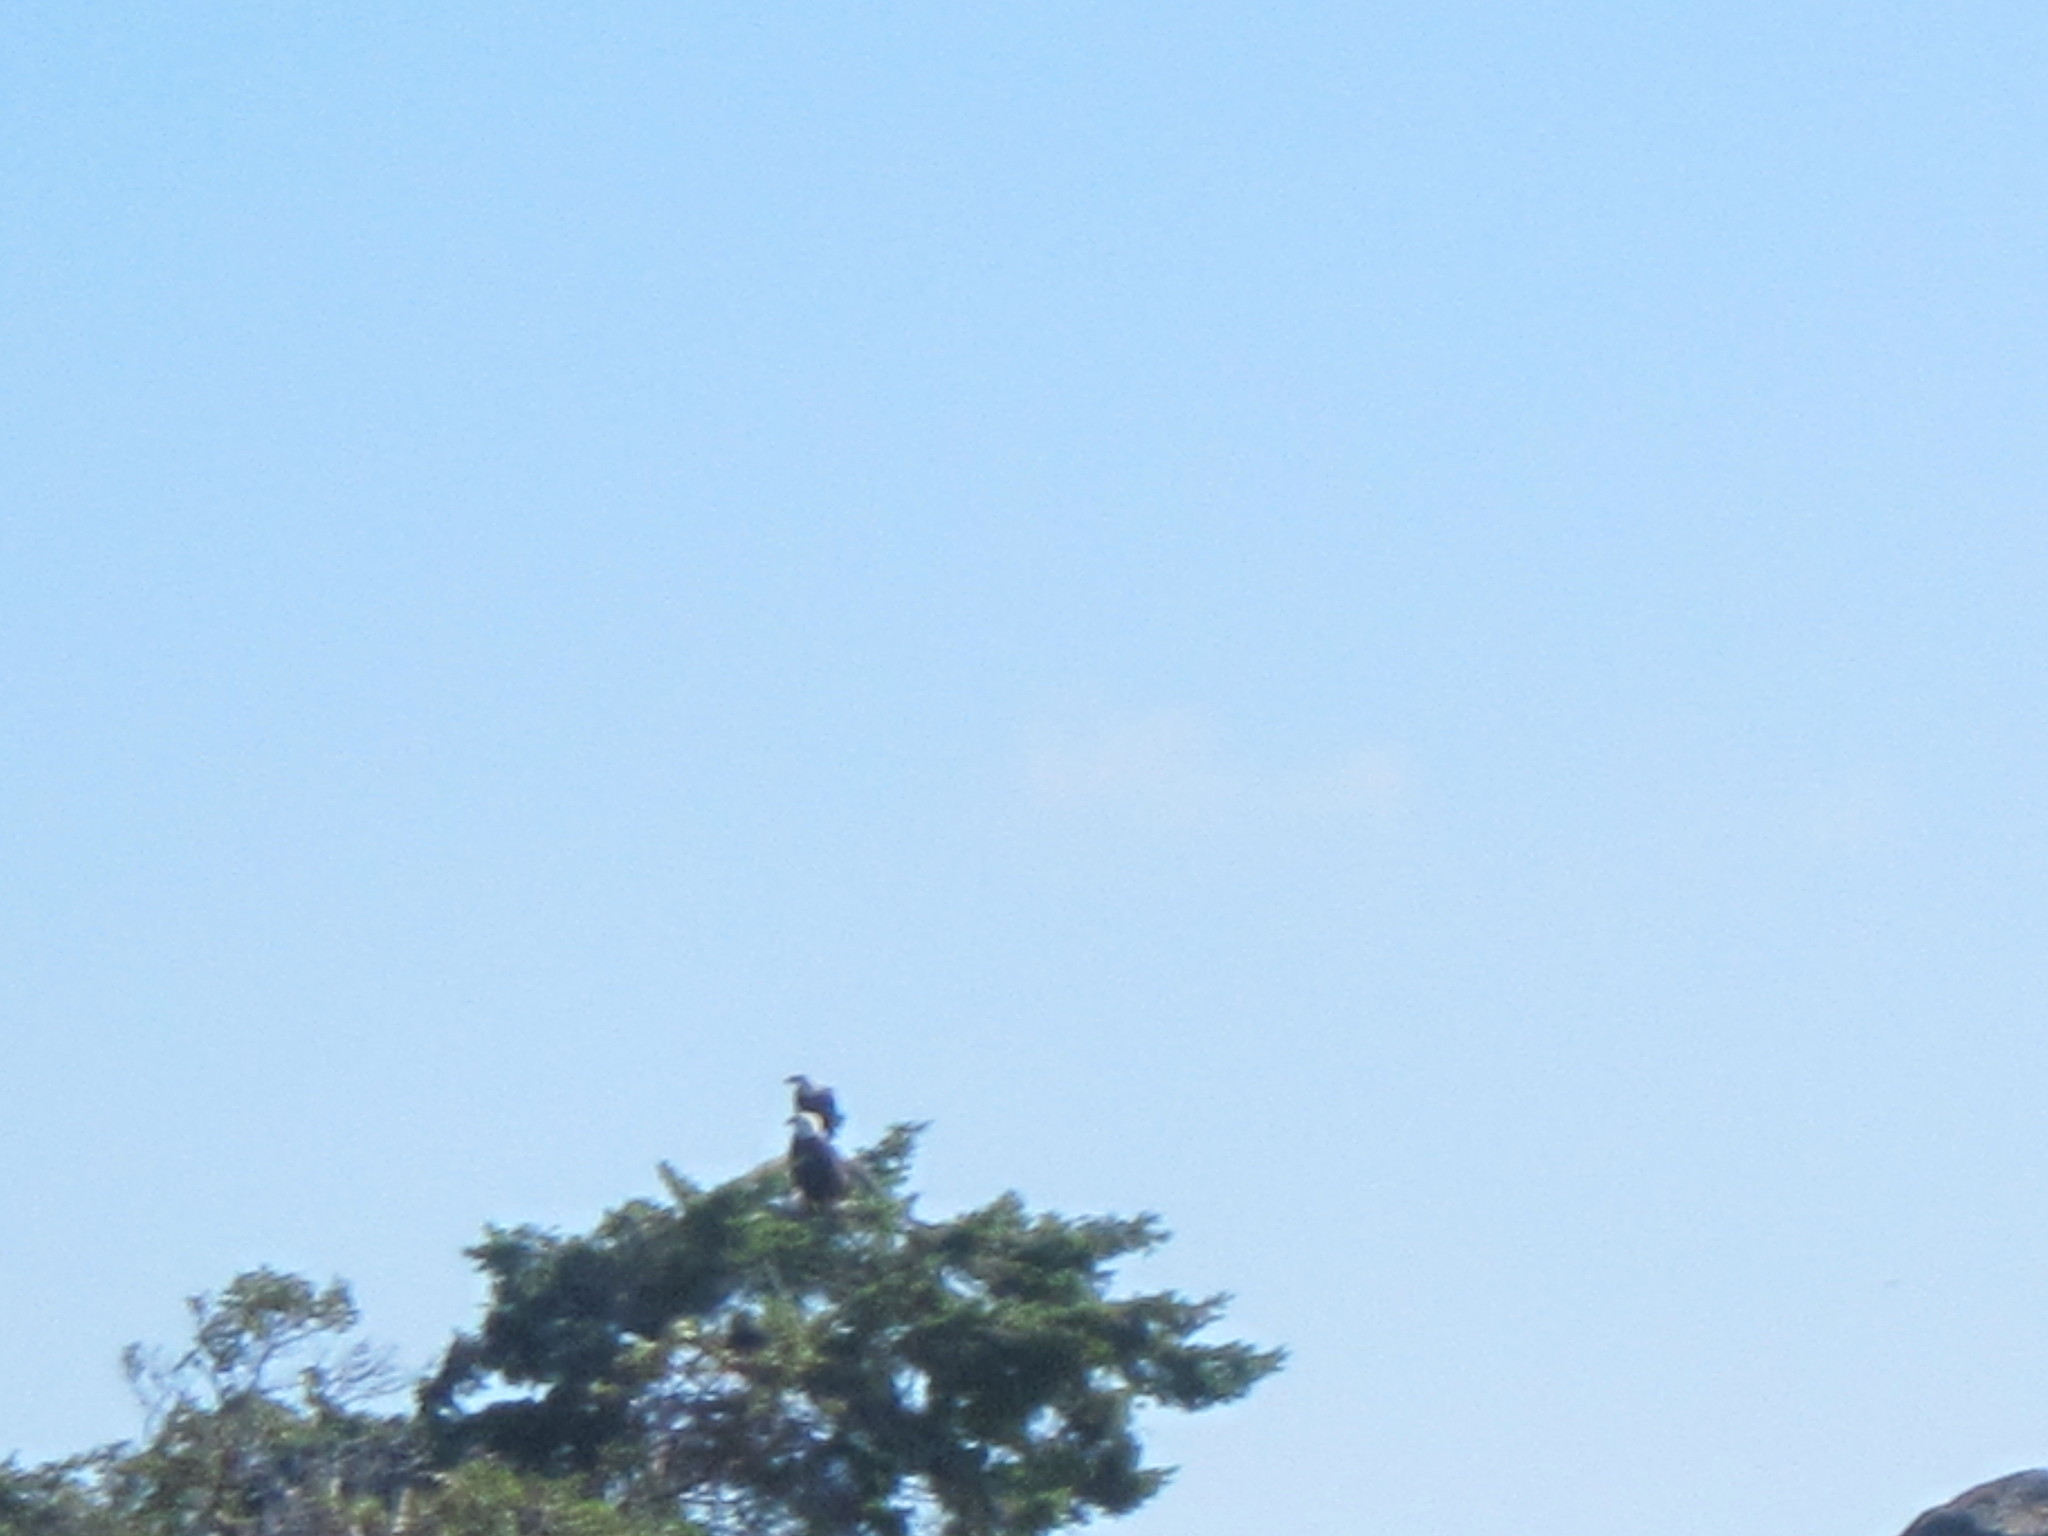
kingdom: Animalia
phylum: Chordata
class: Aves
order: Accipitriformes
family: Accipitridae
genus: Haliaeetus
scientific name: Haliaeetus leucocephalus
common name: Bald eagle
